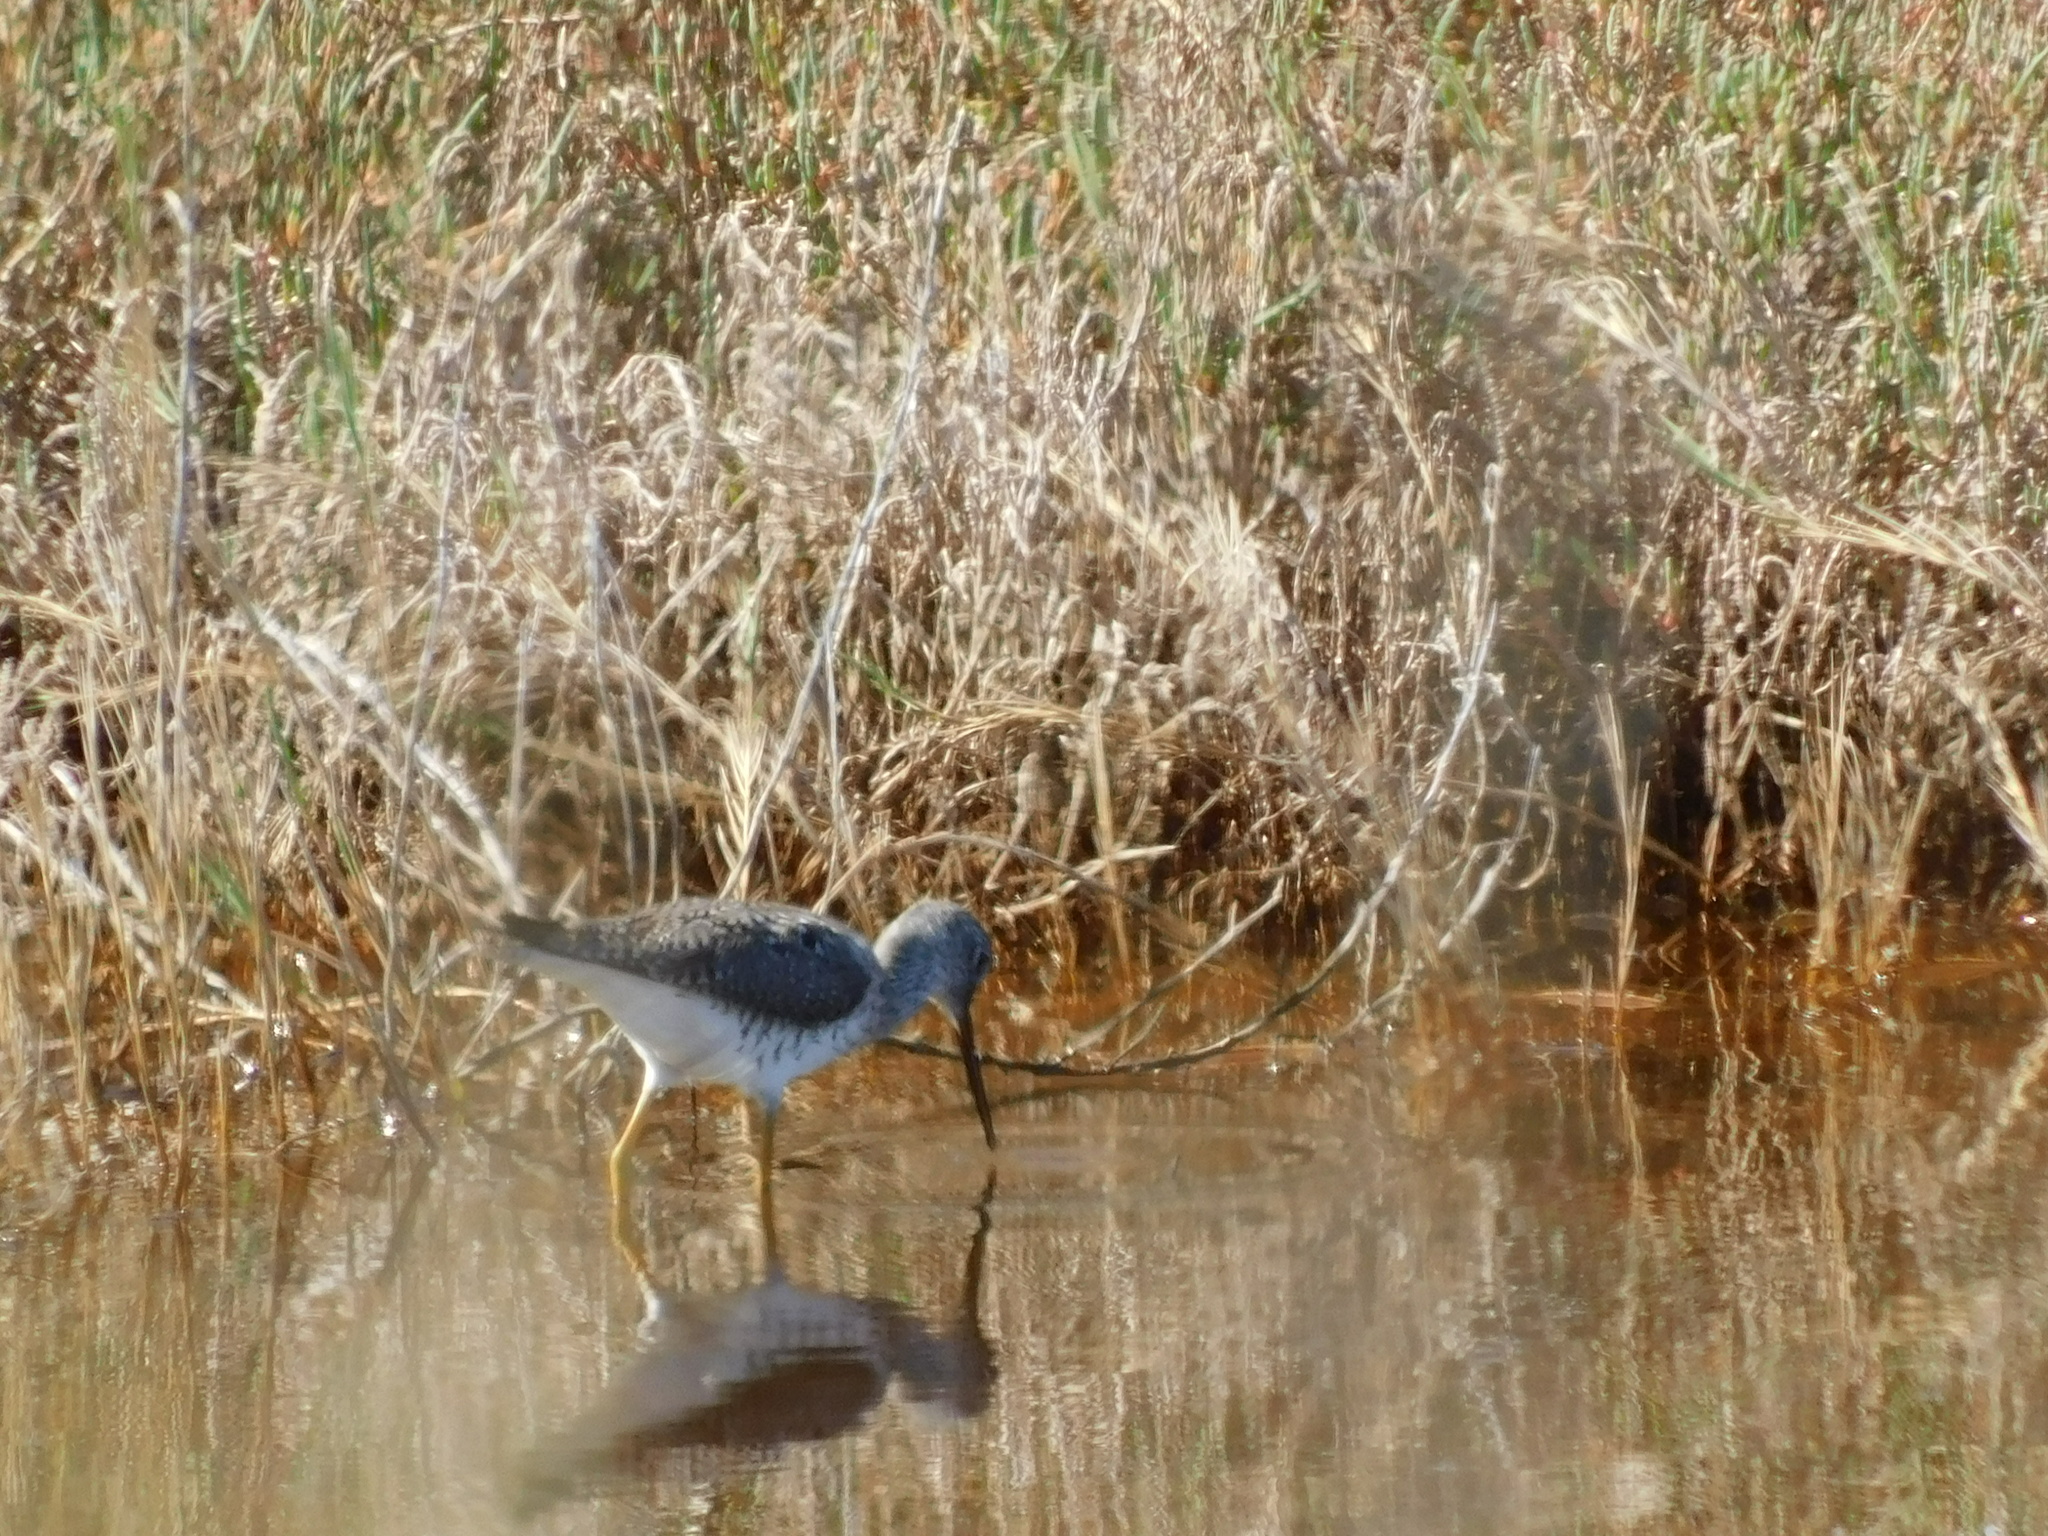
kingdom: Animalia
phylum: Chordata
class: Aves
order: Charadriiformes
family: Scolopacidae
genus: Tringa
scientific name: Tringa melanoleuca
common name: Greater yellowlegs
